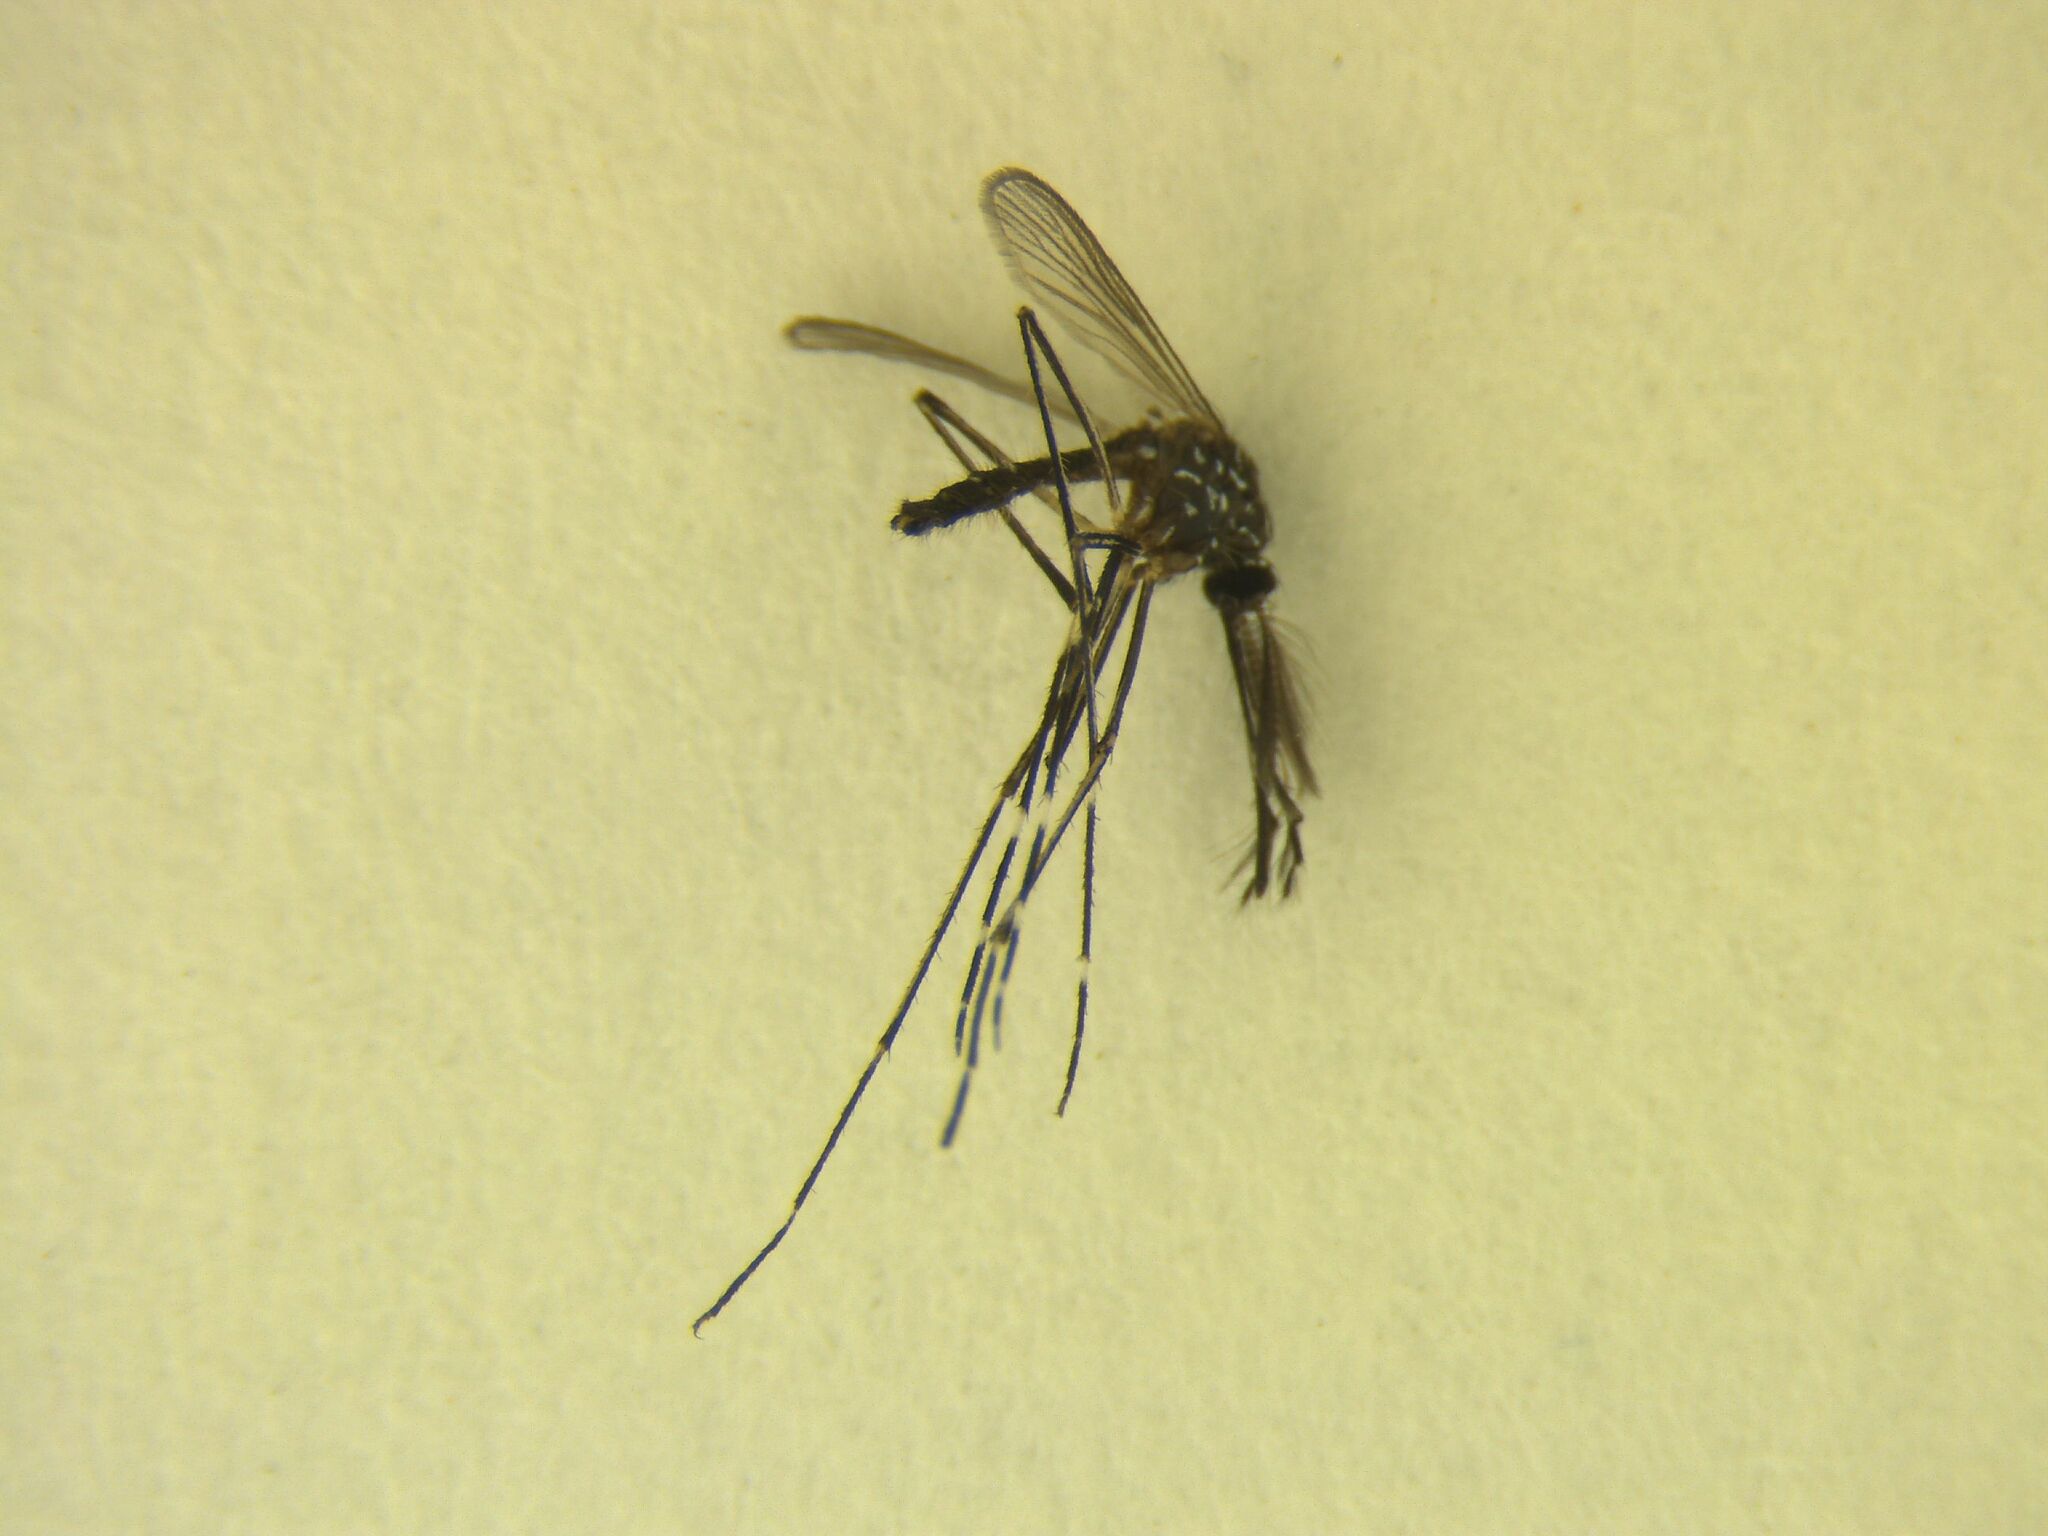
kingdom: Animalia
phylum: Arthropoda
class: Insecta
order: Diptera
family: Culicidae
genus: Aedes
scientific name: Aedes notoscriptus
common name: Australian backyard mosquito
